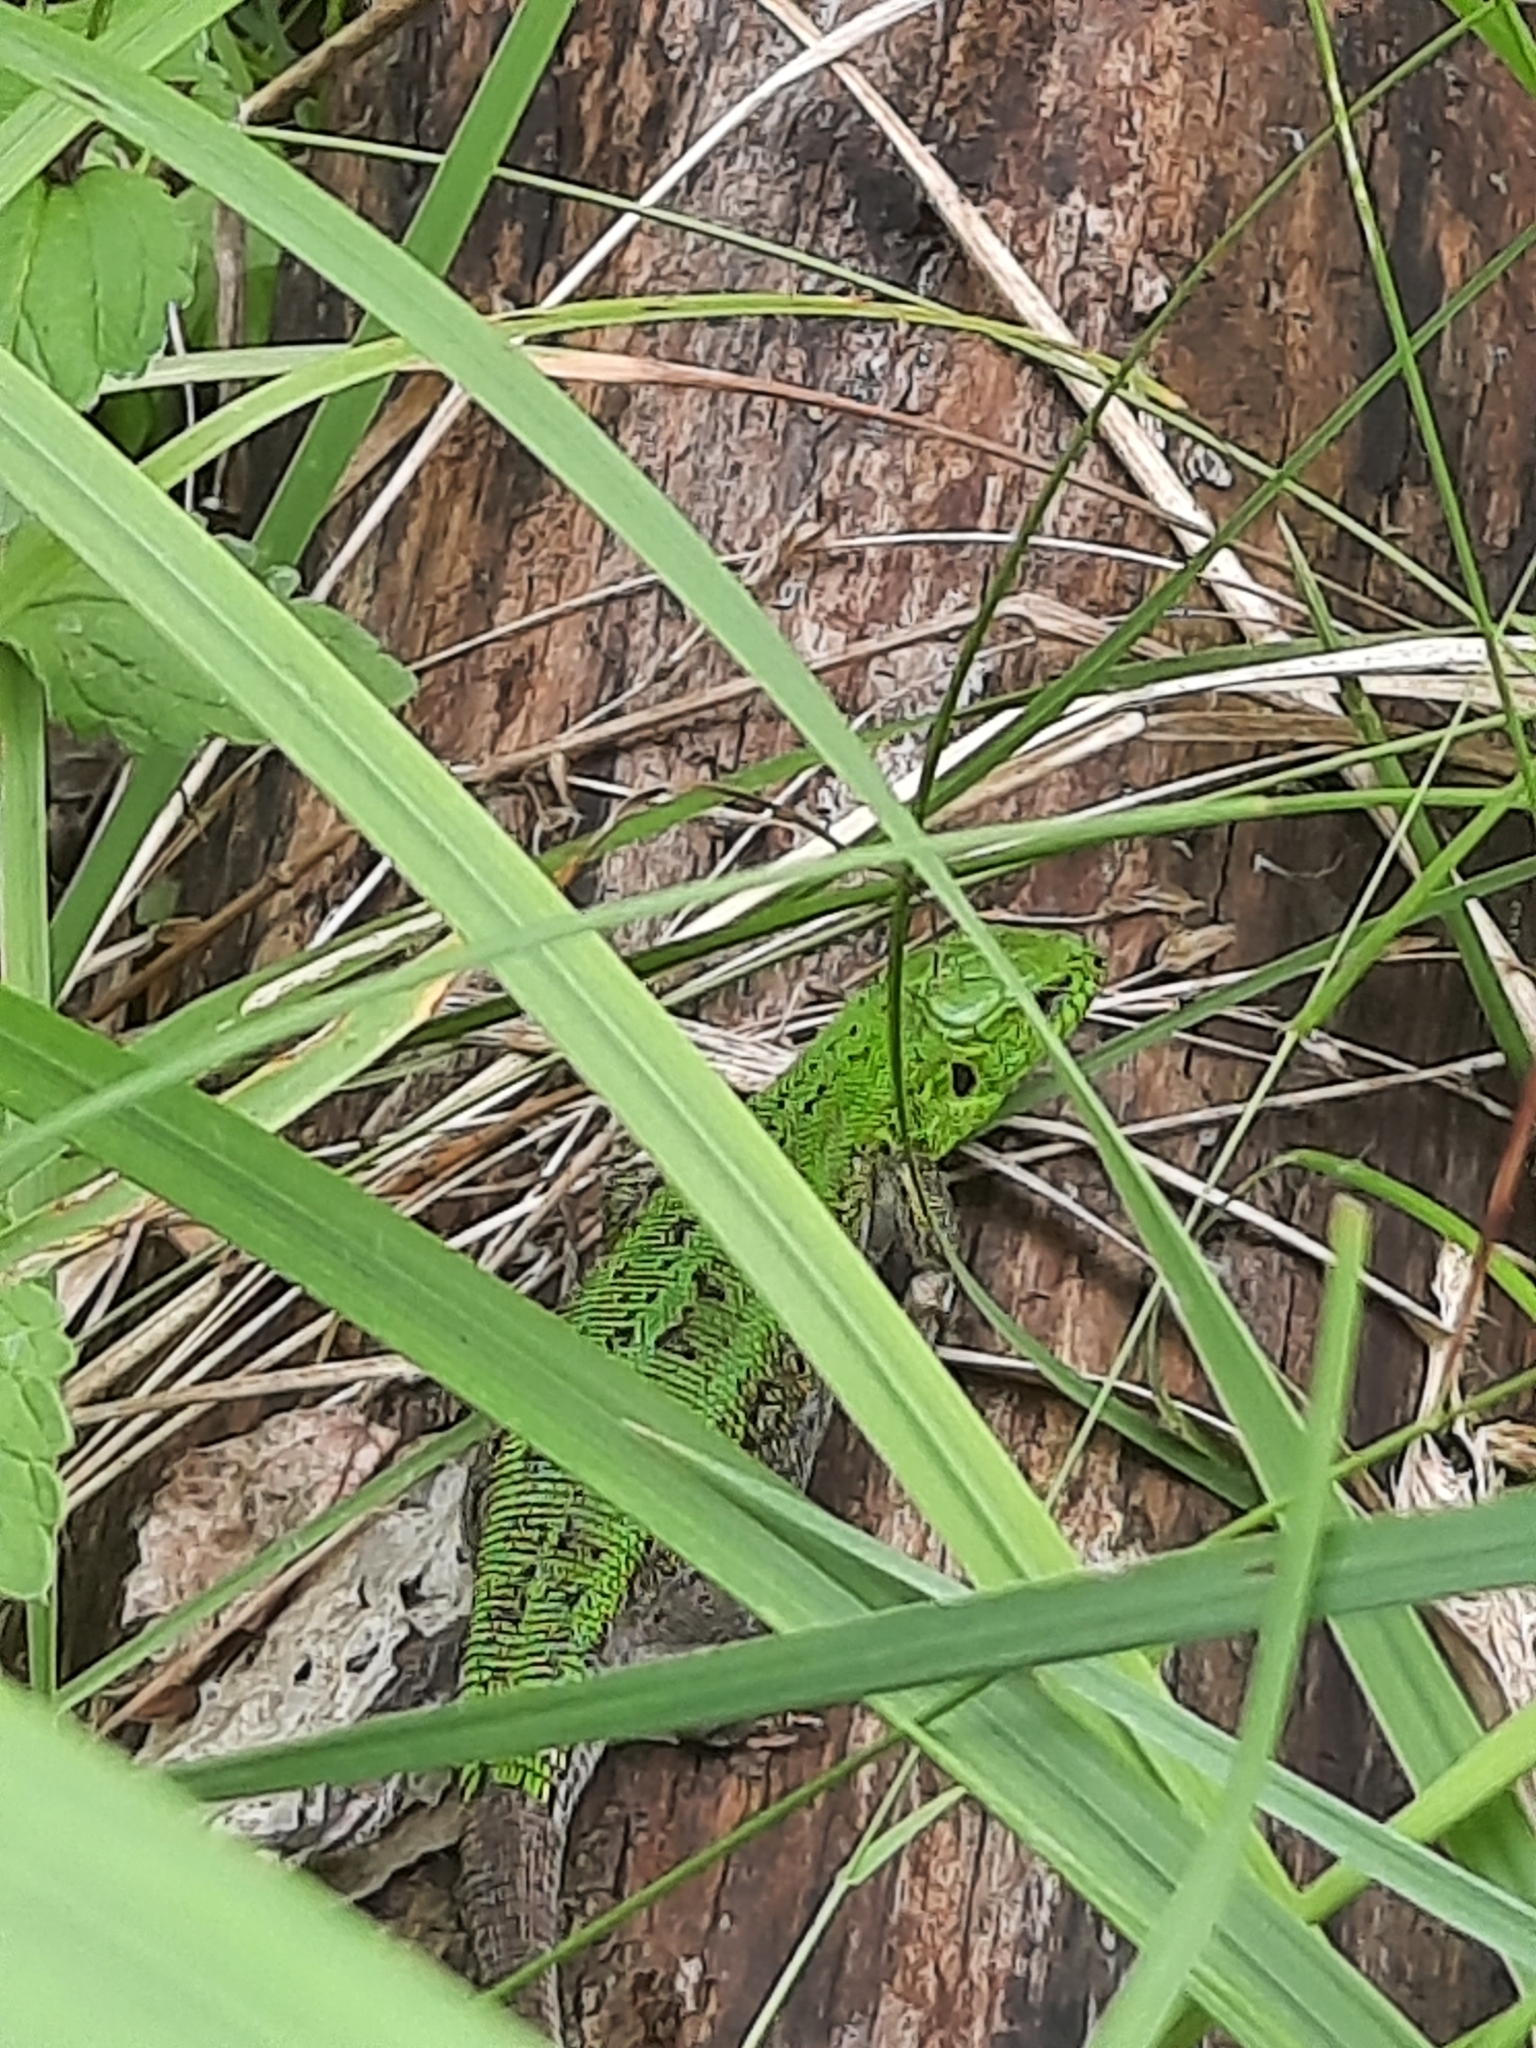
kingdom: Animalia
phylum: Chordata
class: Squamata
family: Lacertidae
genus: Lacerta
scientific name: Lacerta agilis
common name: Sand lizard
